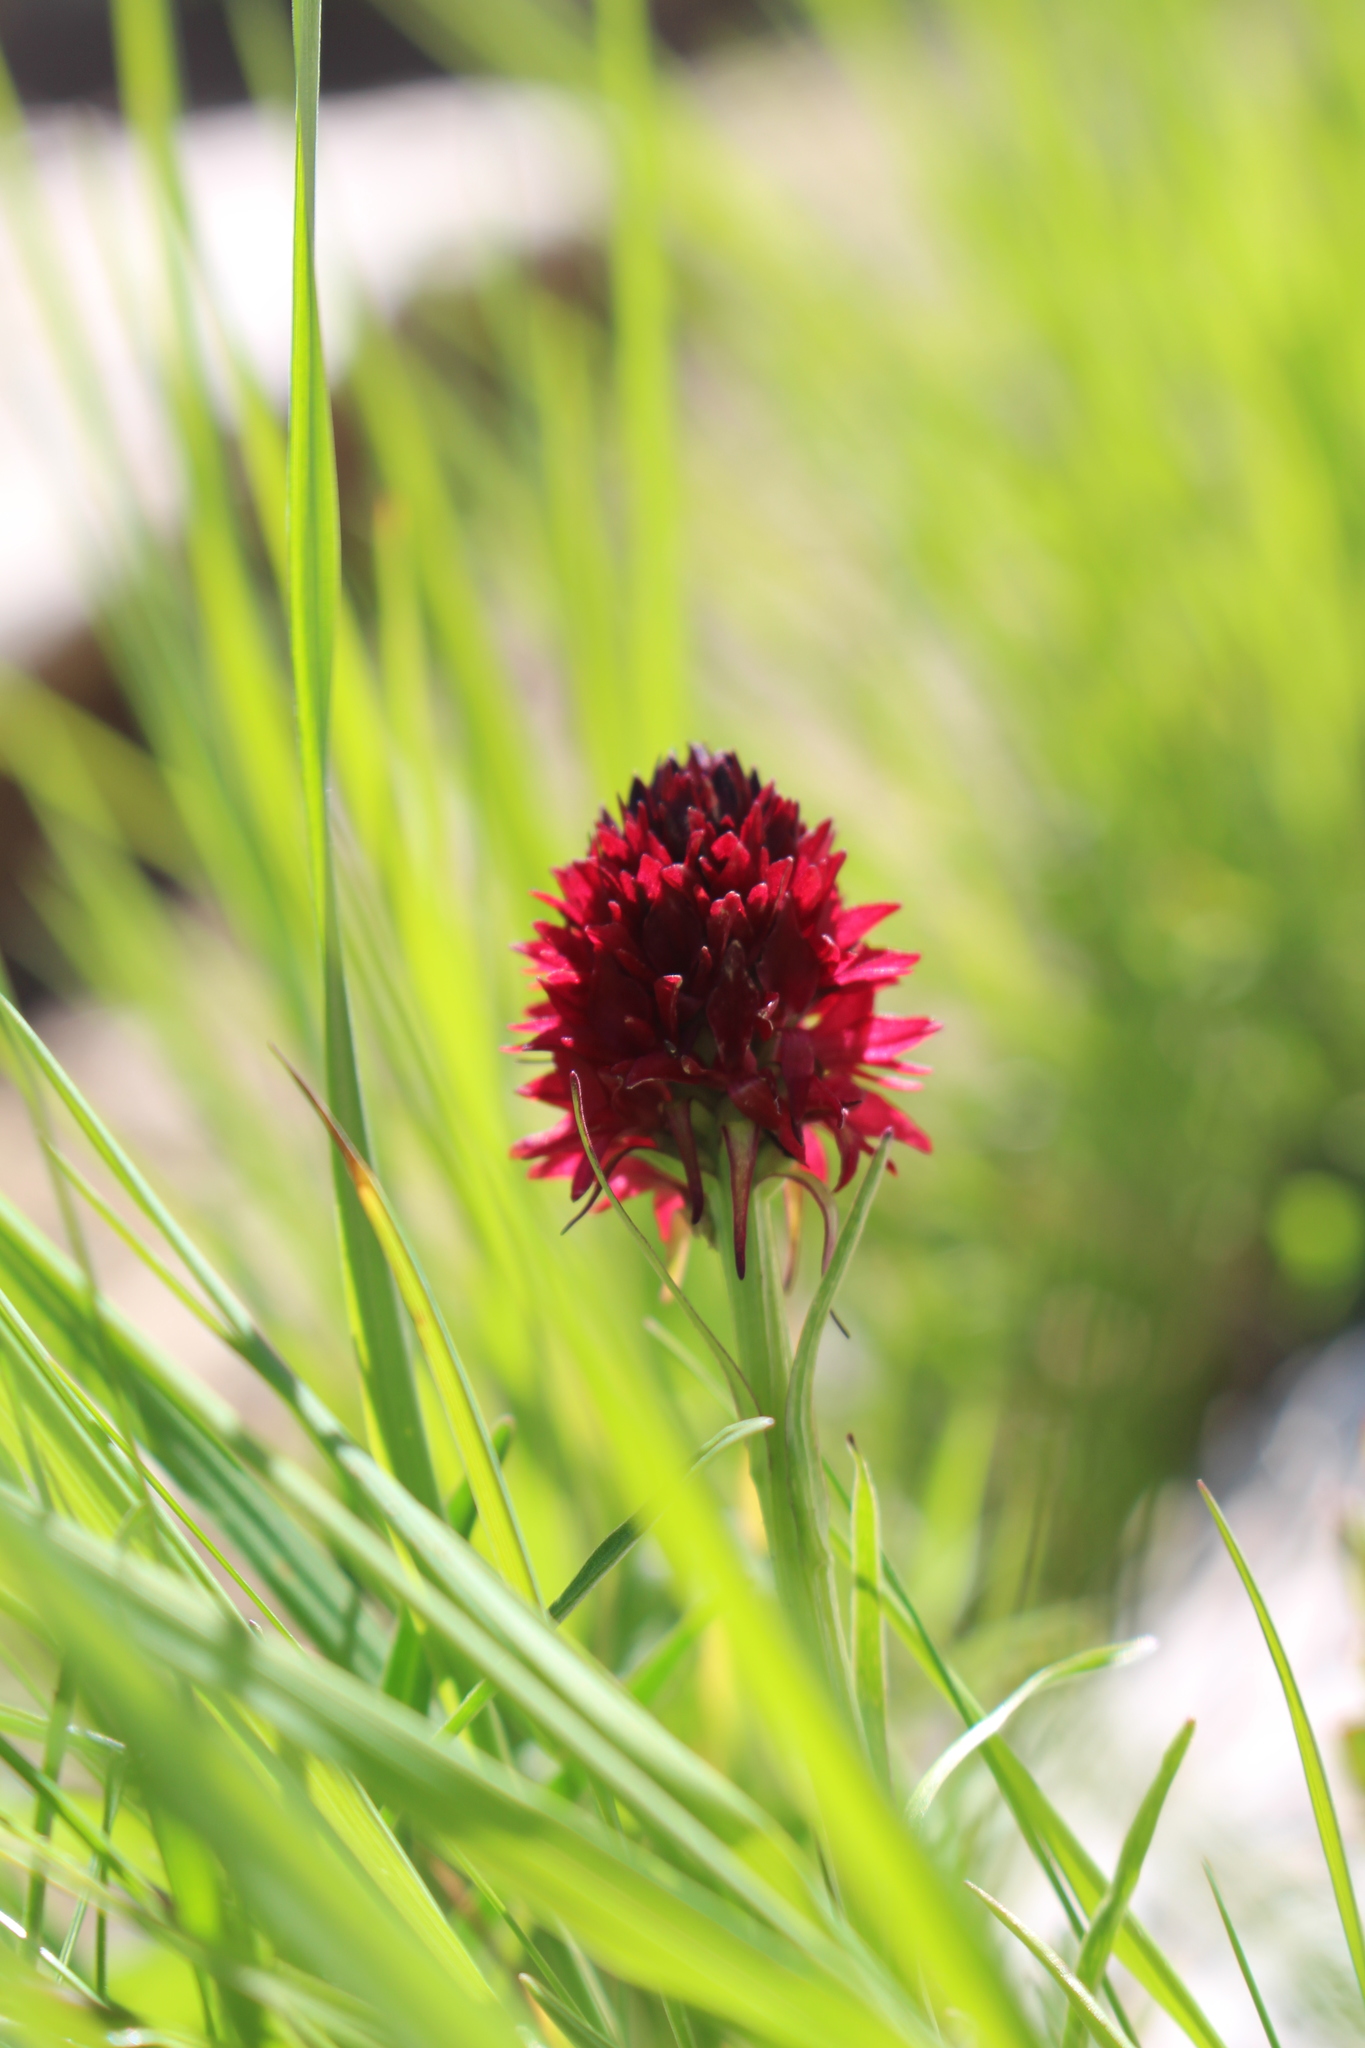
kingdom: Plantae
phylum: Tracheophyta
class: Liliopsida
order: Asparagales
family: Orchidaceae
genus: Gymnadenia
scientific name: Gymnadenia rhellicani
